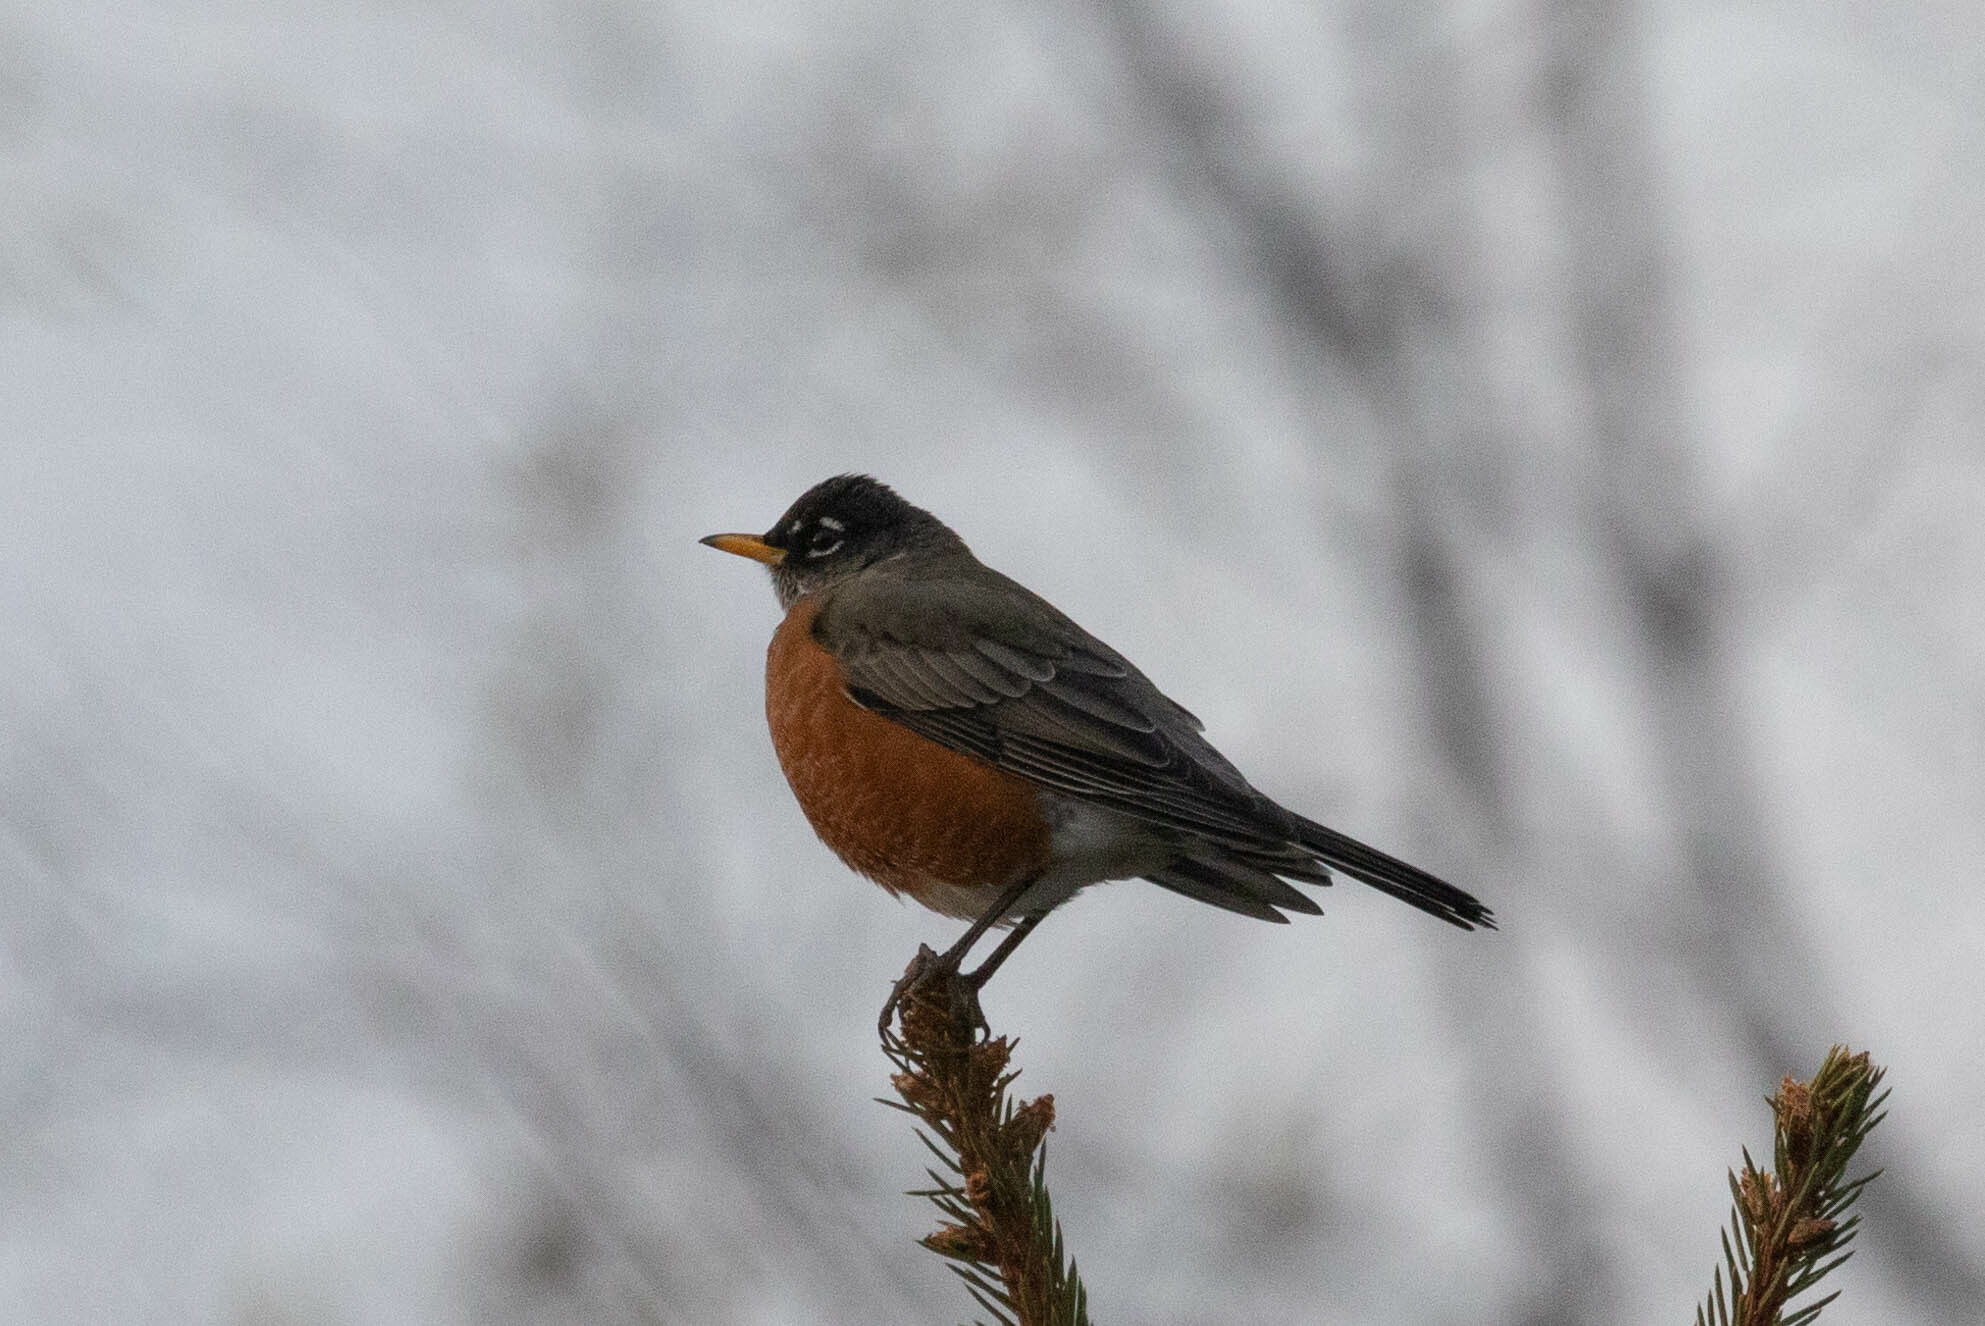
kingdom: Animalia
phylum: Chordata
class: Aves
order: Passeriformes
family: Turdidae
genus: Turdus
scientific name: Turdus migratorius
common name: American robin
